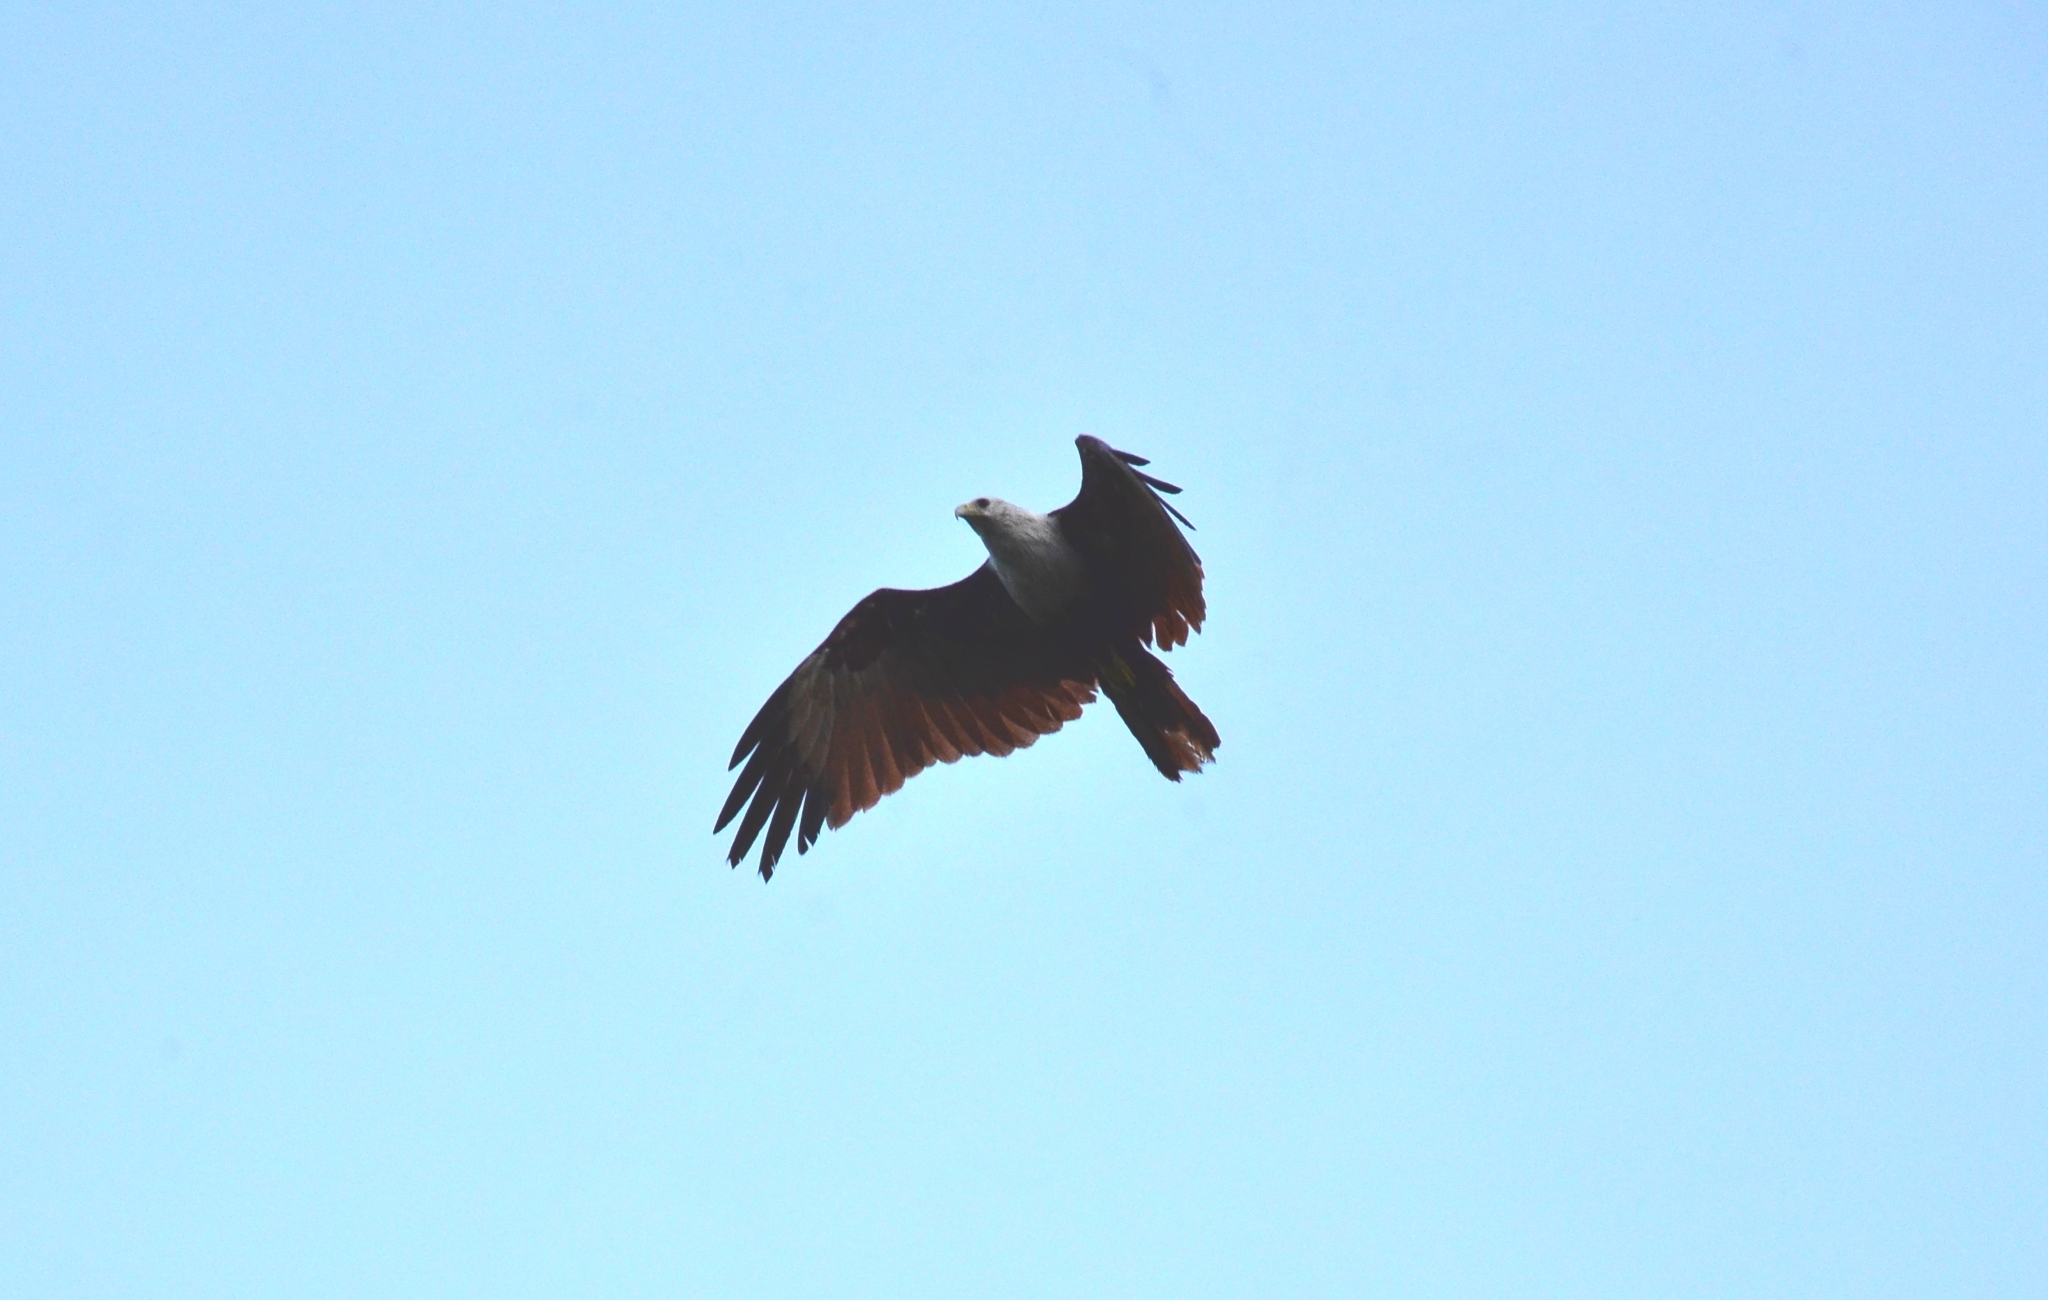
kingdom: Animalia
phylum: Chordata
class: Aves
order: Accipitriformes
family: Accipitridae
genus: Haliastur
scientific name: Haliastur indus
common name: Brahminy kite
